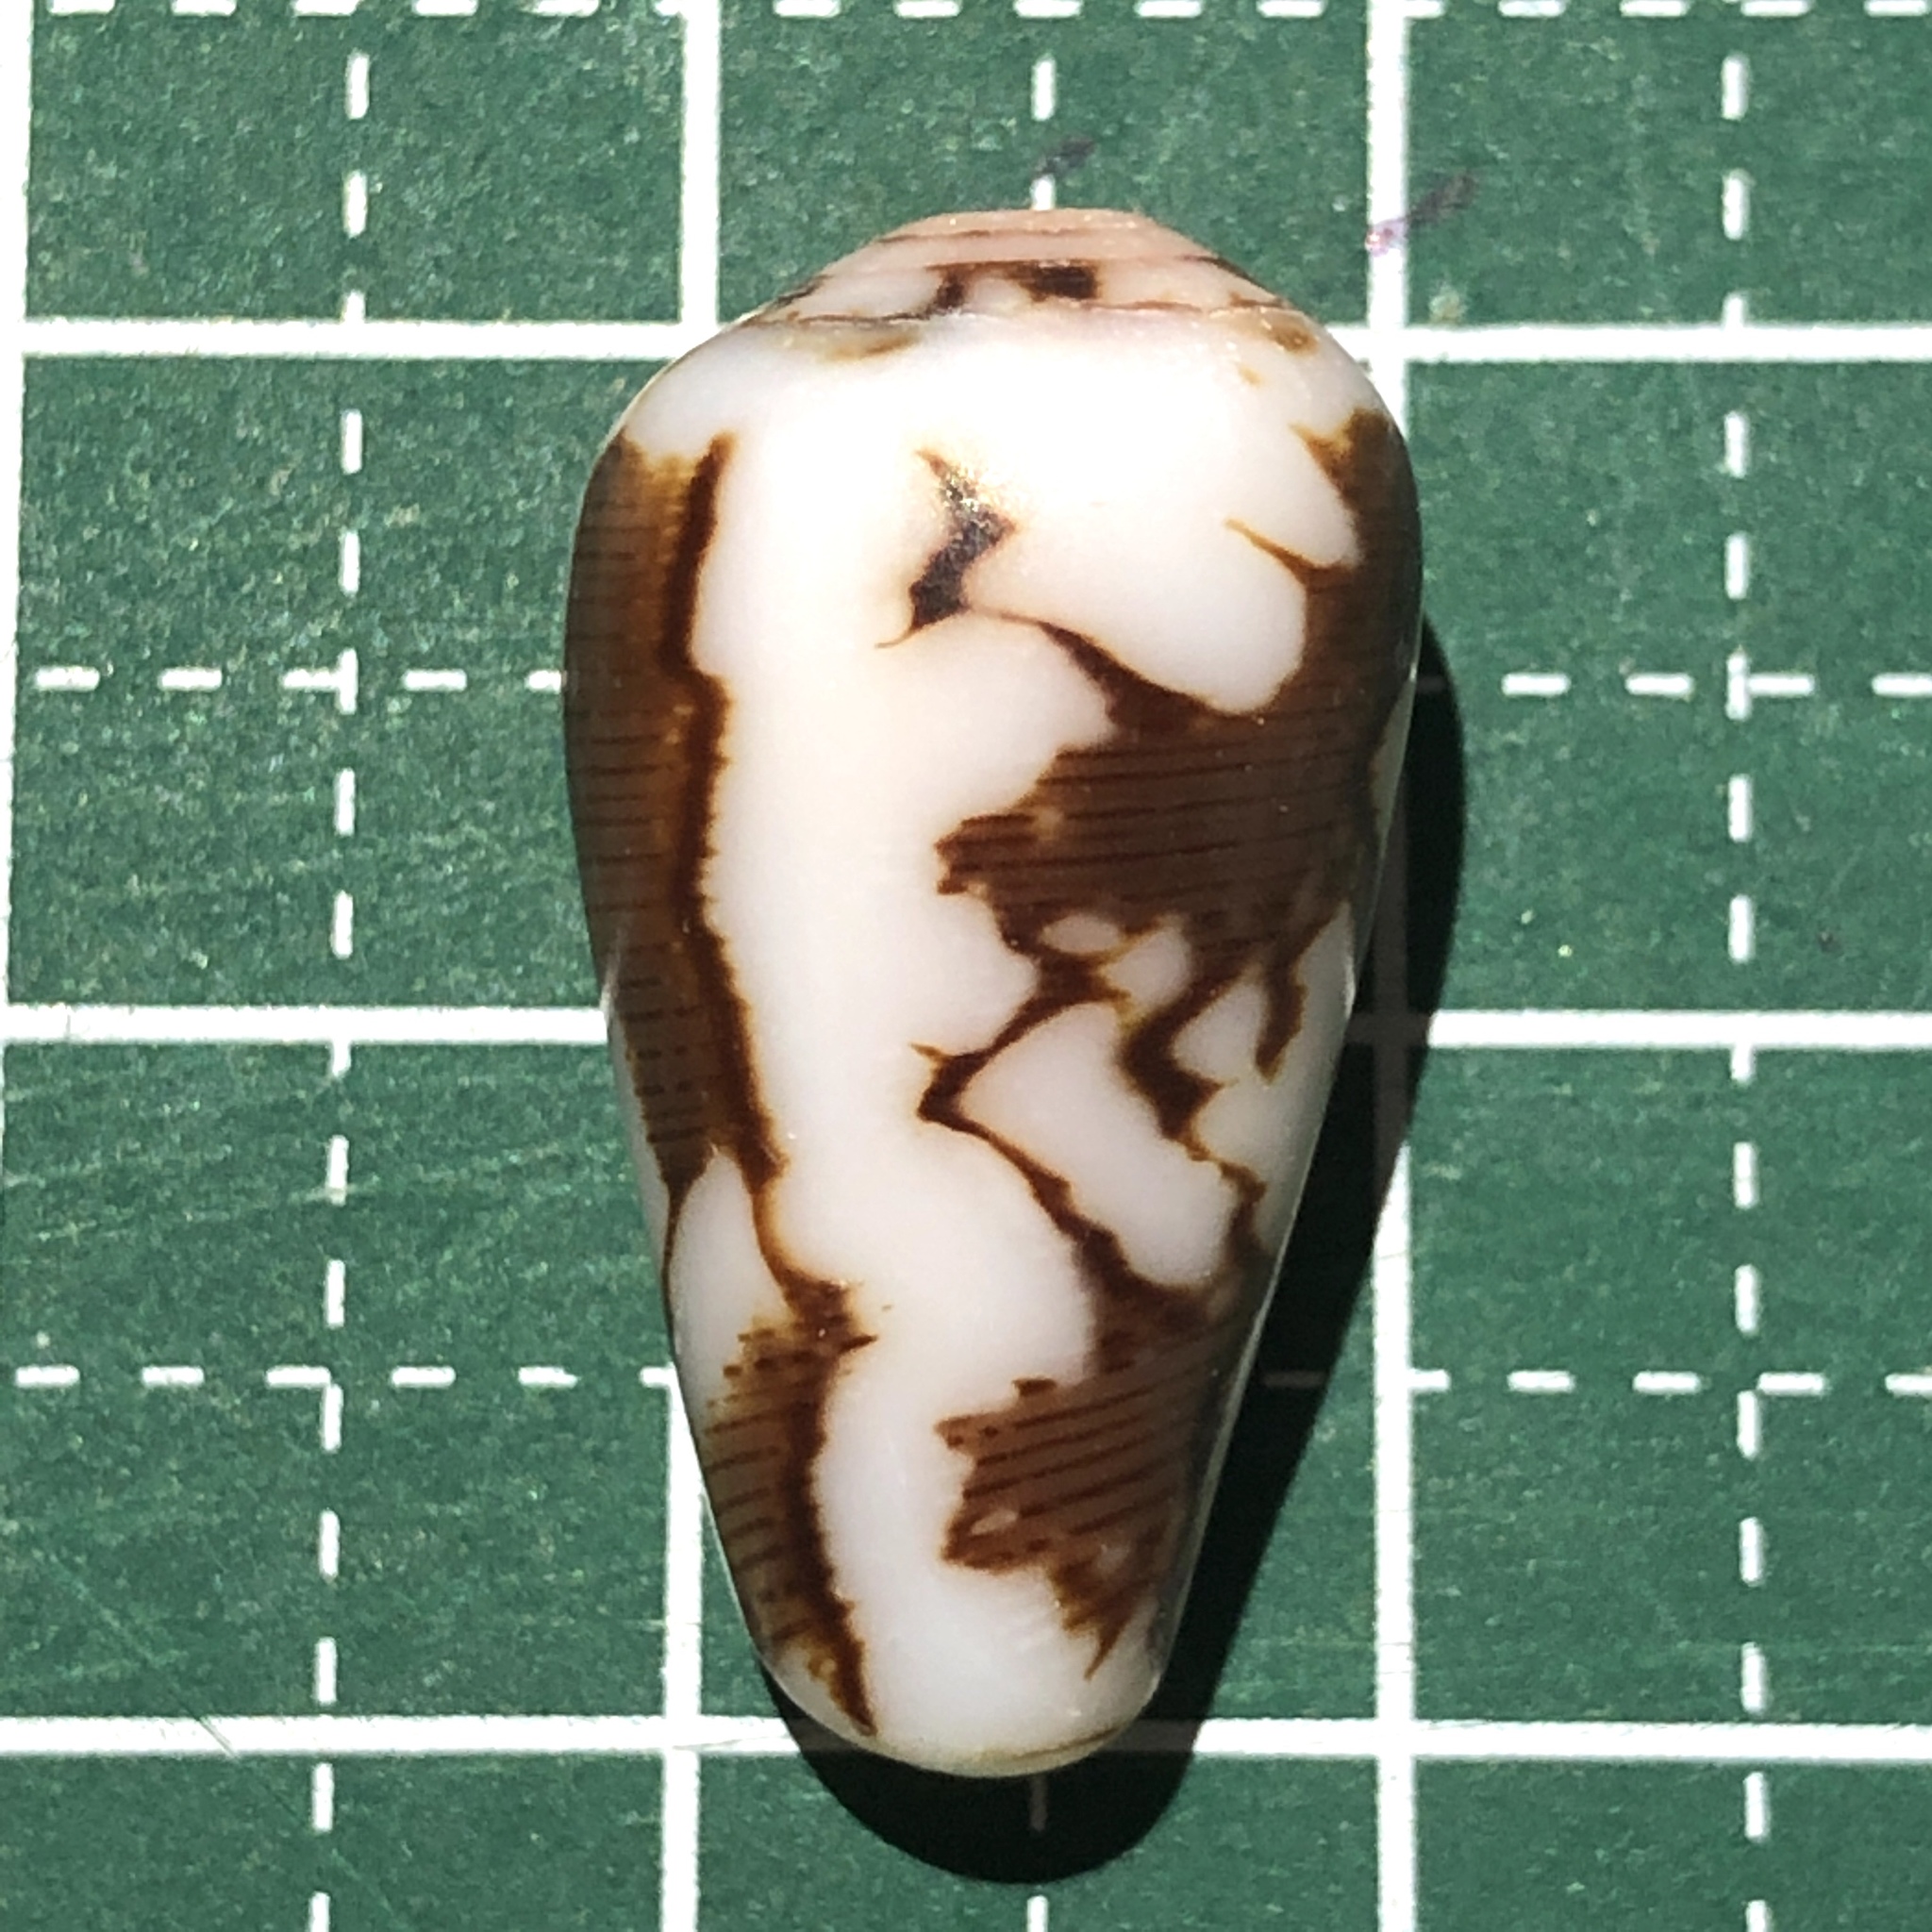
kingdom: Animalia
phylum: Mollusca
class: Gastropoda
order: Neogastropoda
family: Conidae
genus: Conus
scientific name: Conus striatus
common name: Striated cone
